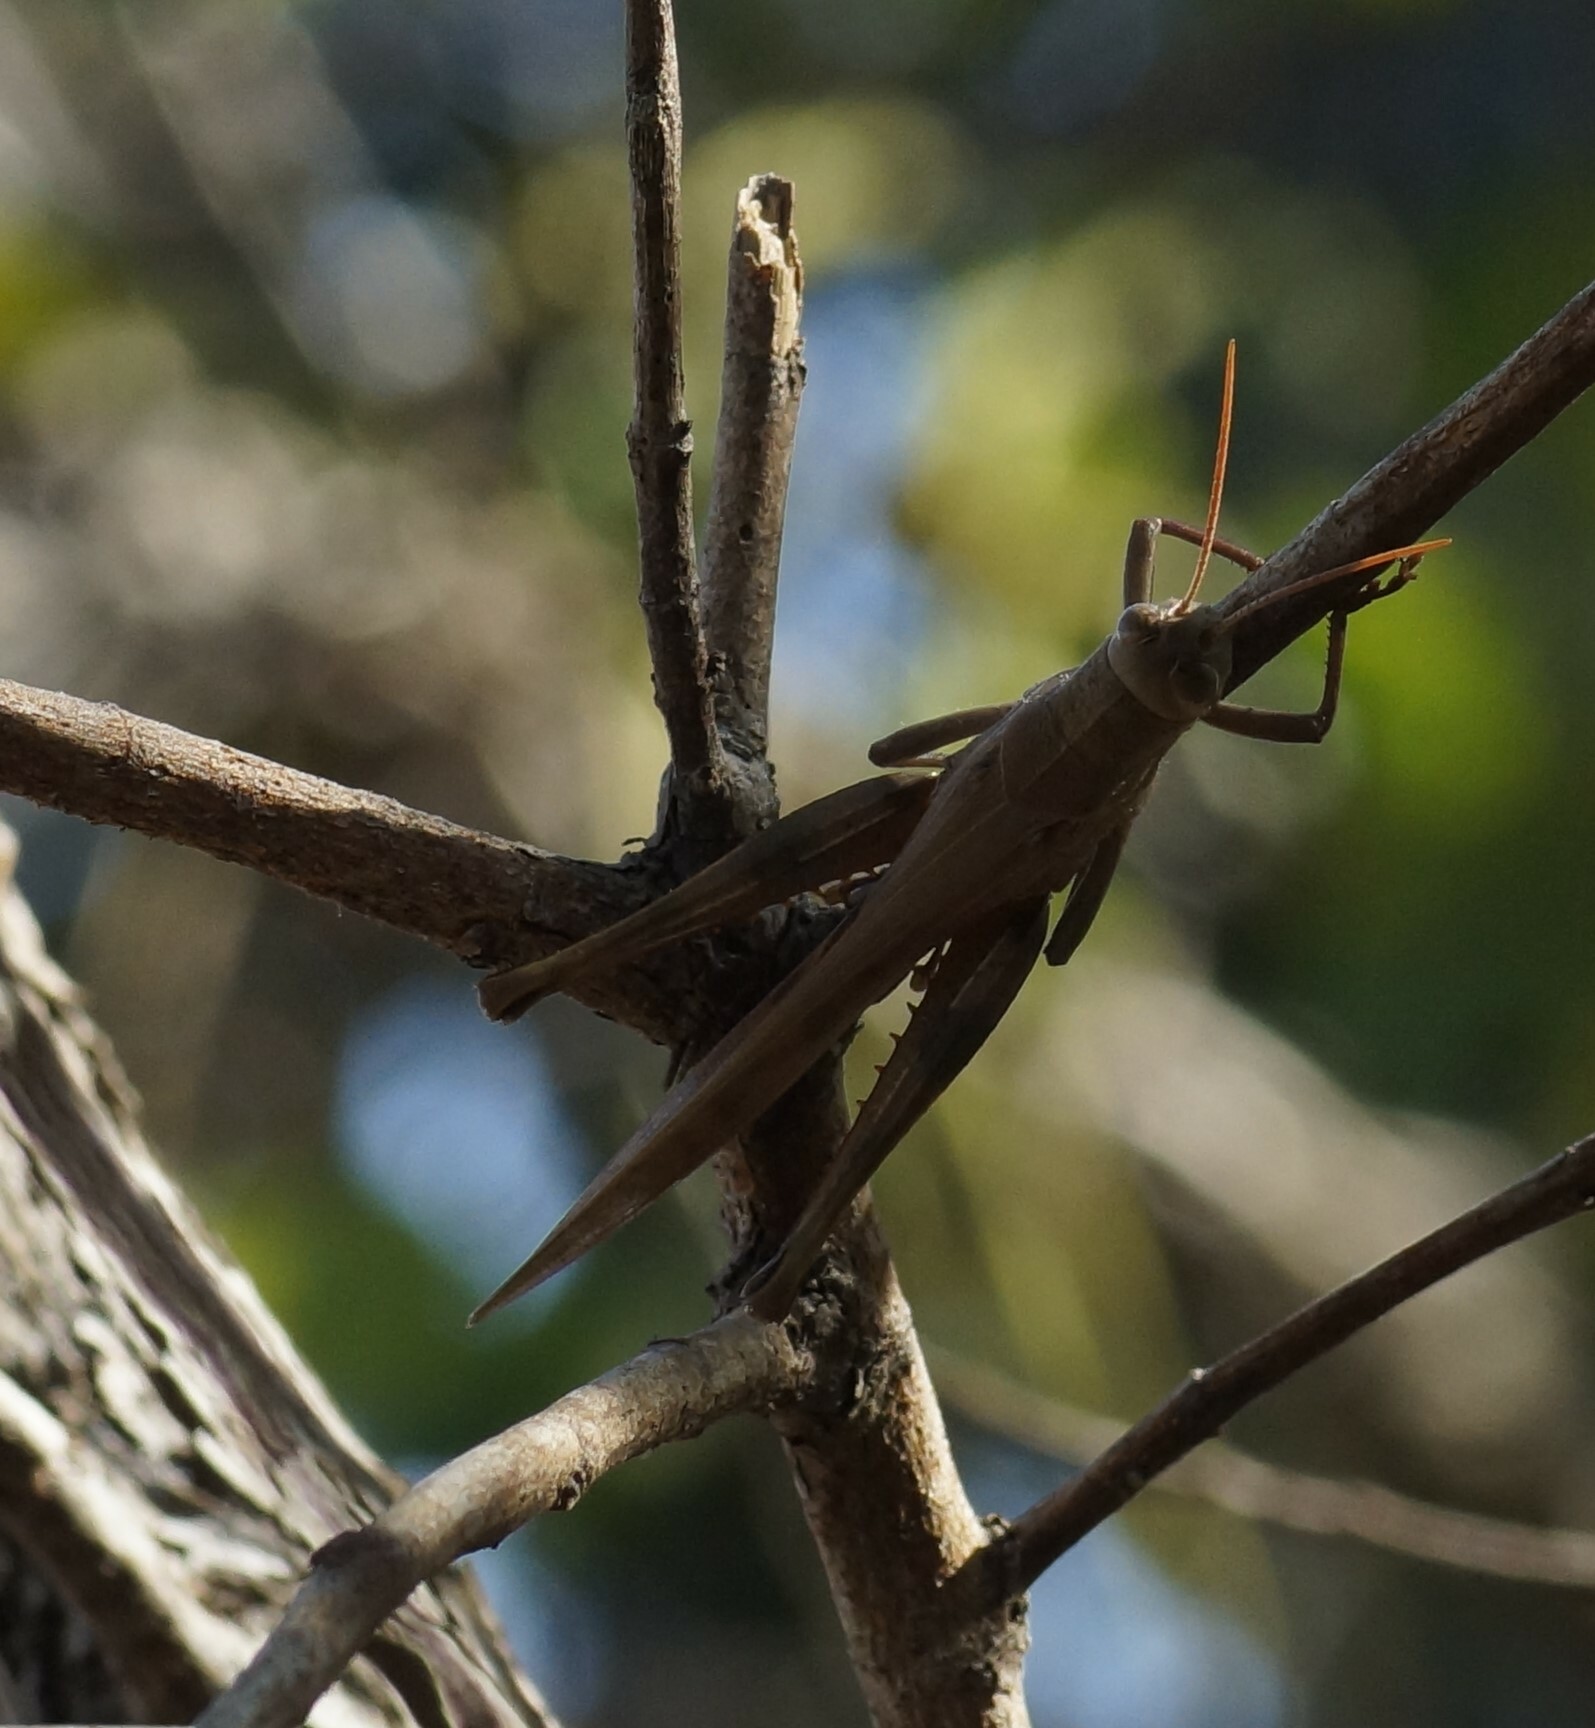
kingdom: Animalia
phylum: Arthropoda
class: Insecta
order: Orthoptera
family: Acrididae
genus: Austracris
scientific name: Austracris basalis
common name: Spotted spur-throated locust
